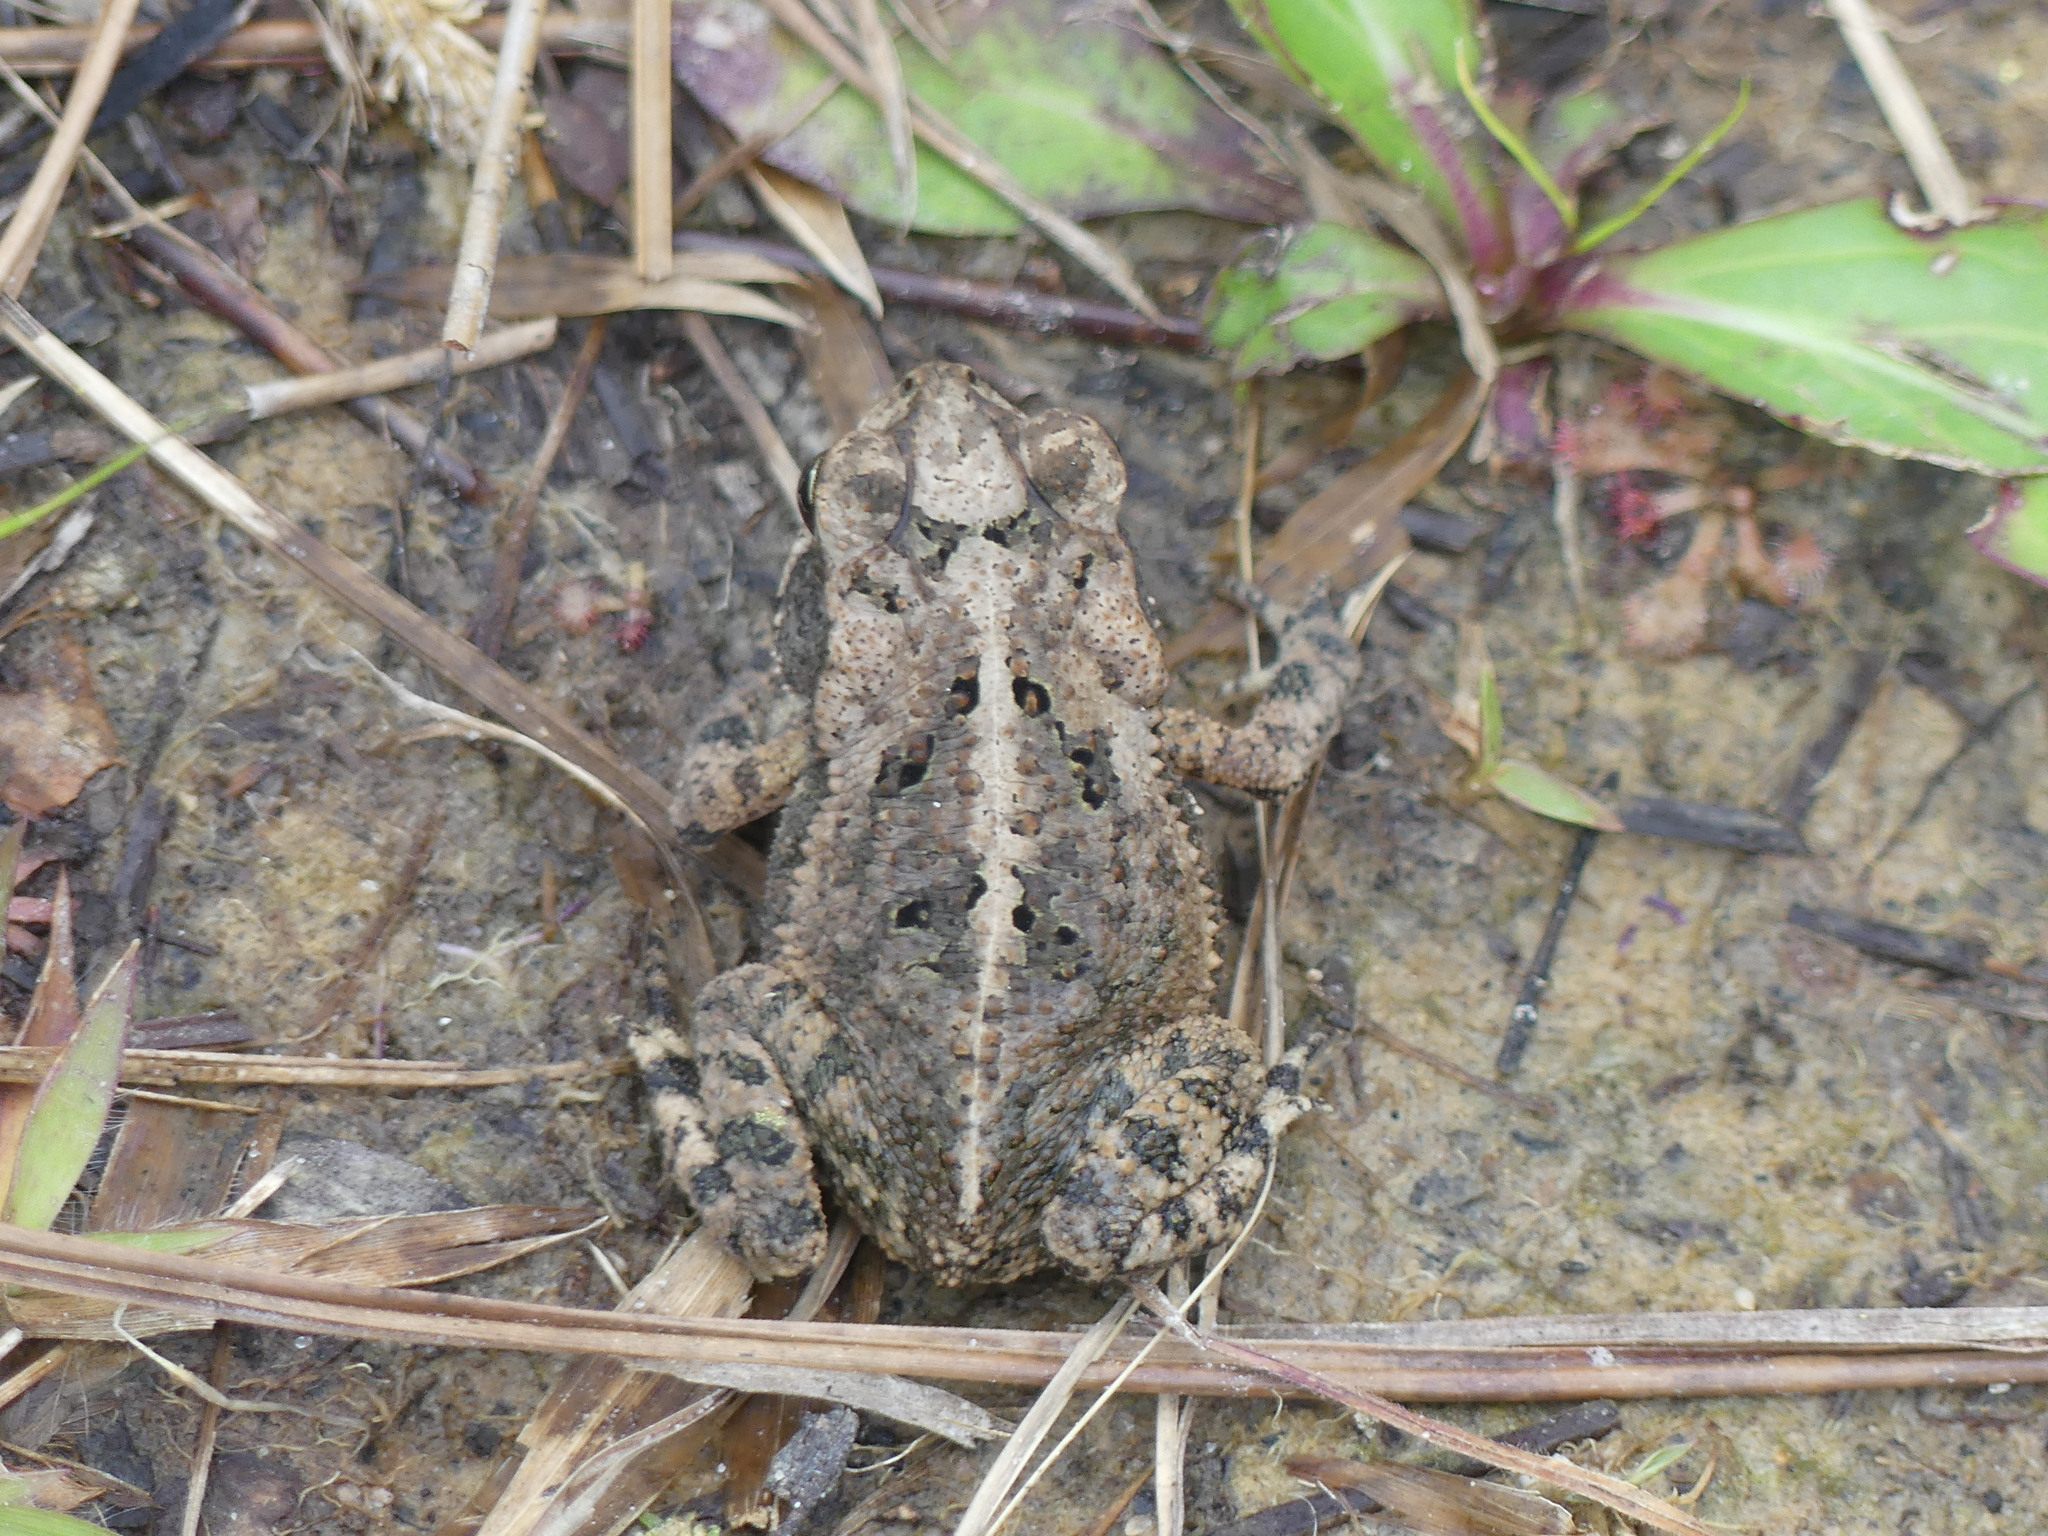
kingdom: Animalia
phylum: Chordata
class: Amphibia
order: Anura
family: Bufonidae
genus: Incilius
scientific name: Incilius nebulifer
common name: Gulf coast toad
